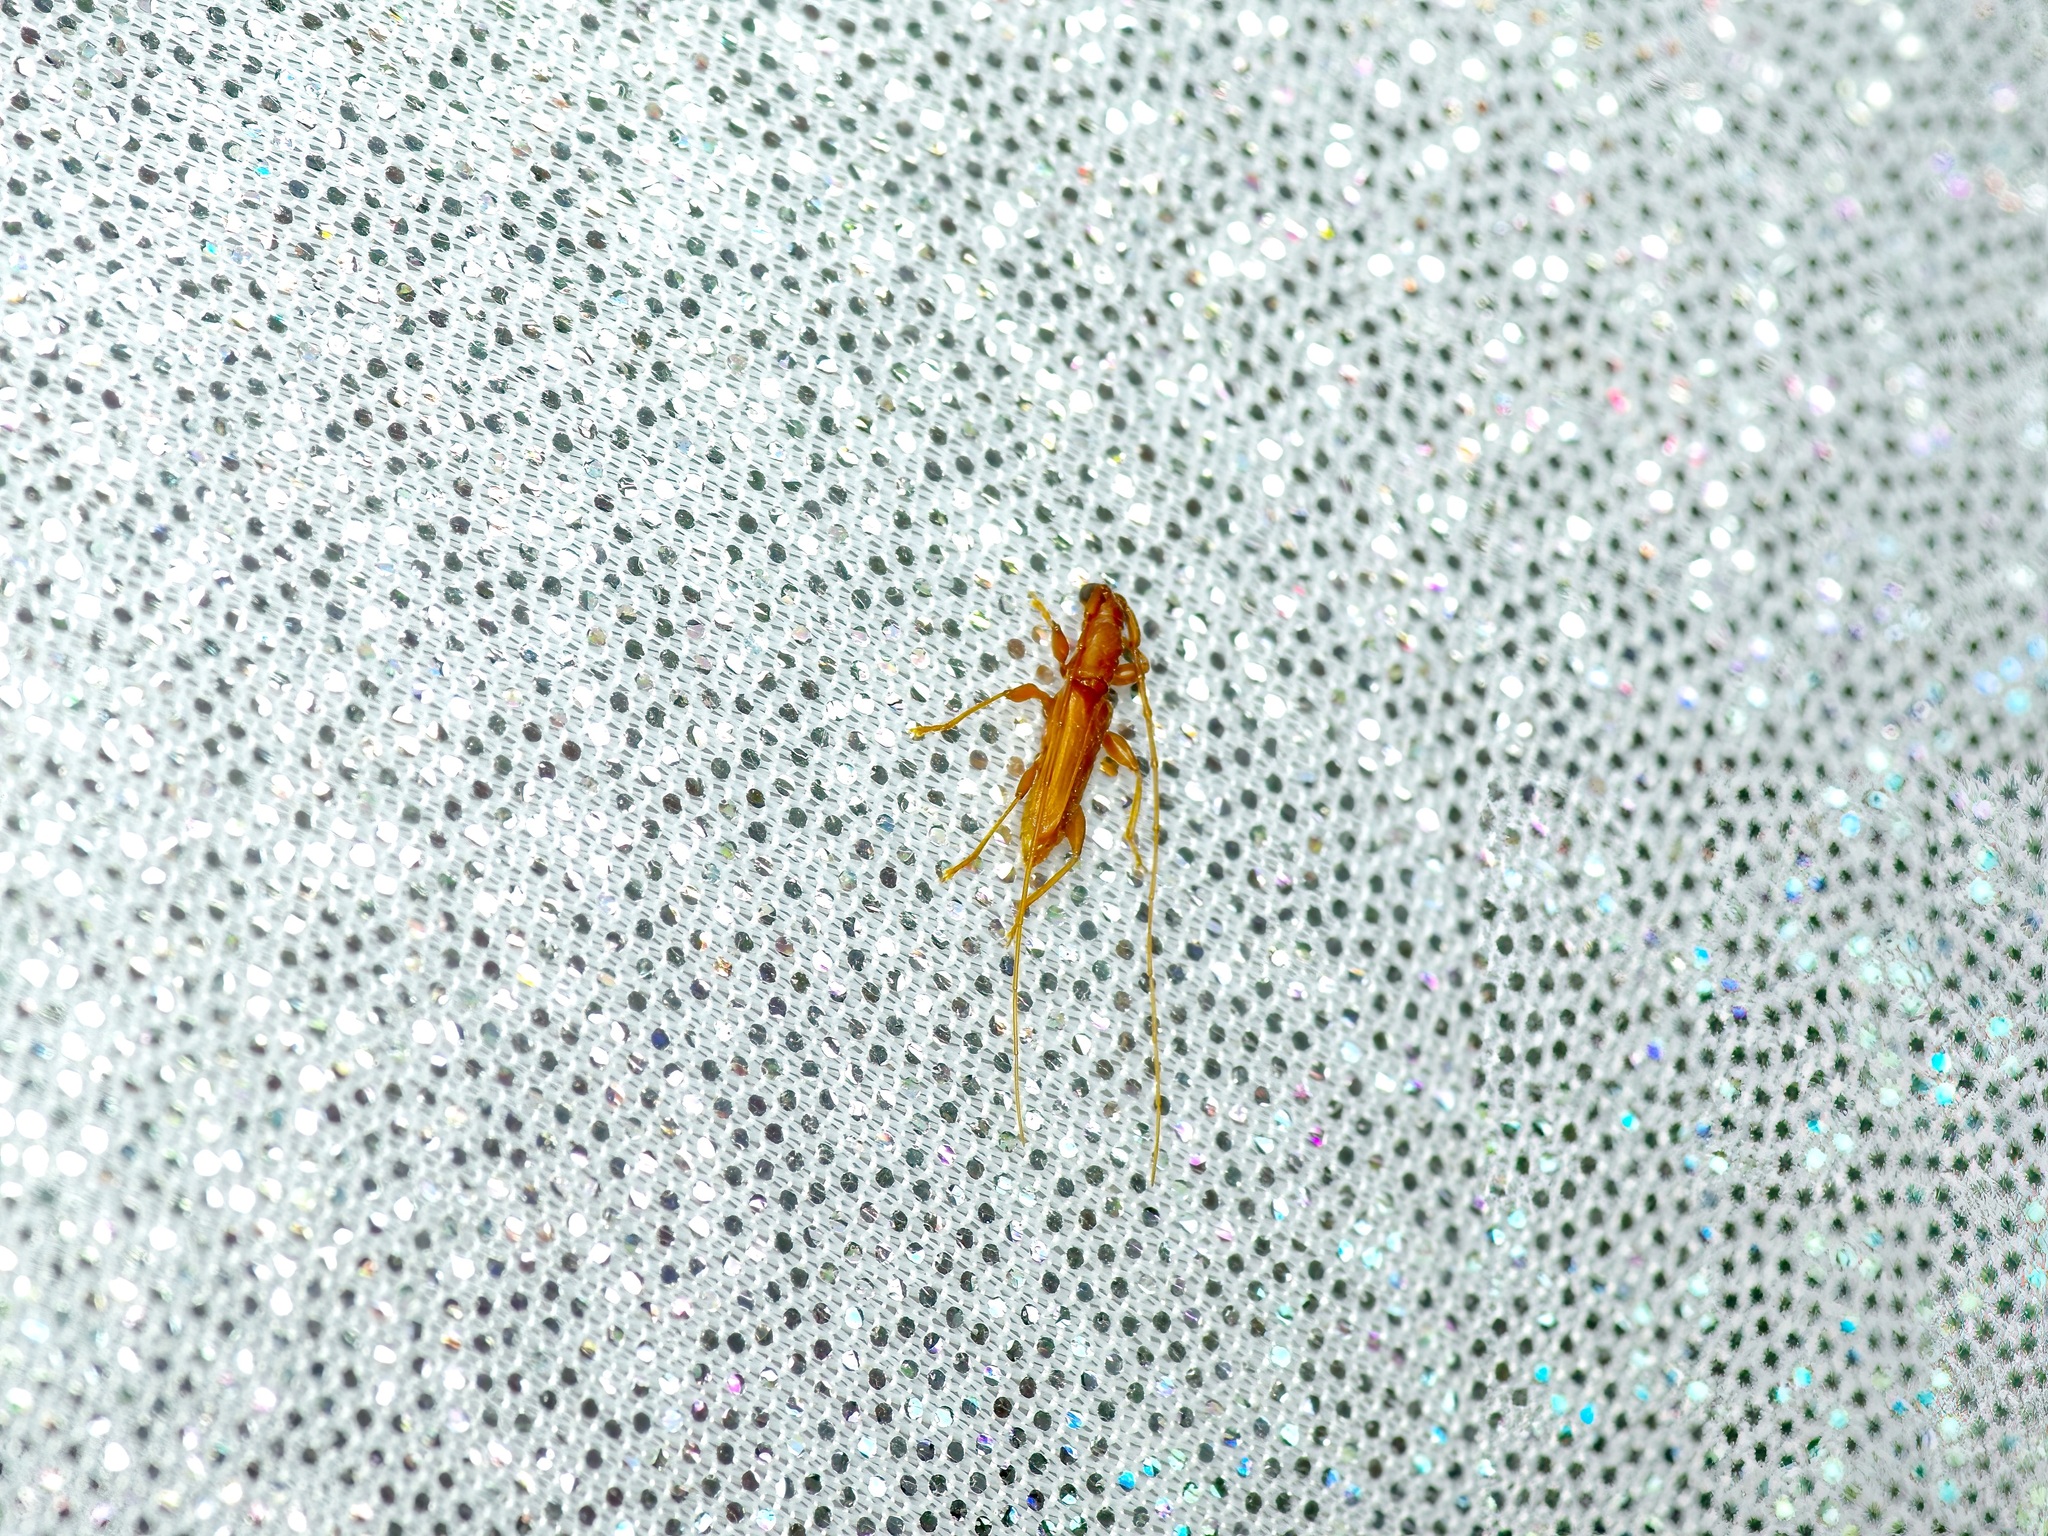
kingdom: Animalia
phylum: Arthropoda
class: Insecta
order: Coleoptera
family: Cerambycidae
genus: Hypexilis
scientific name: Hypexilis pallida
